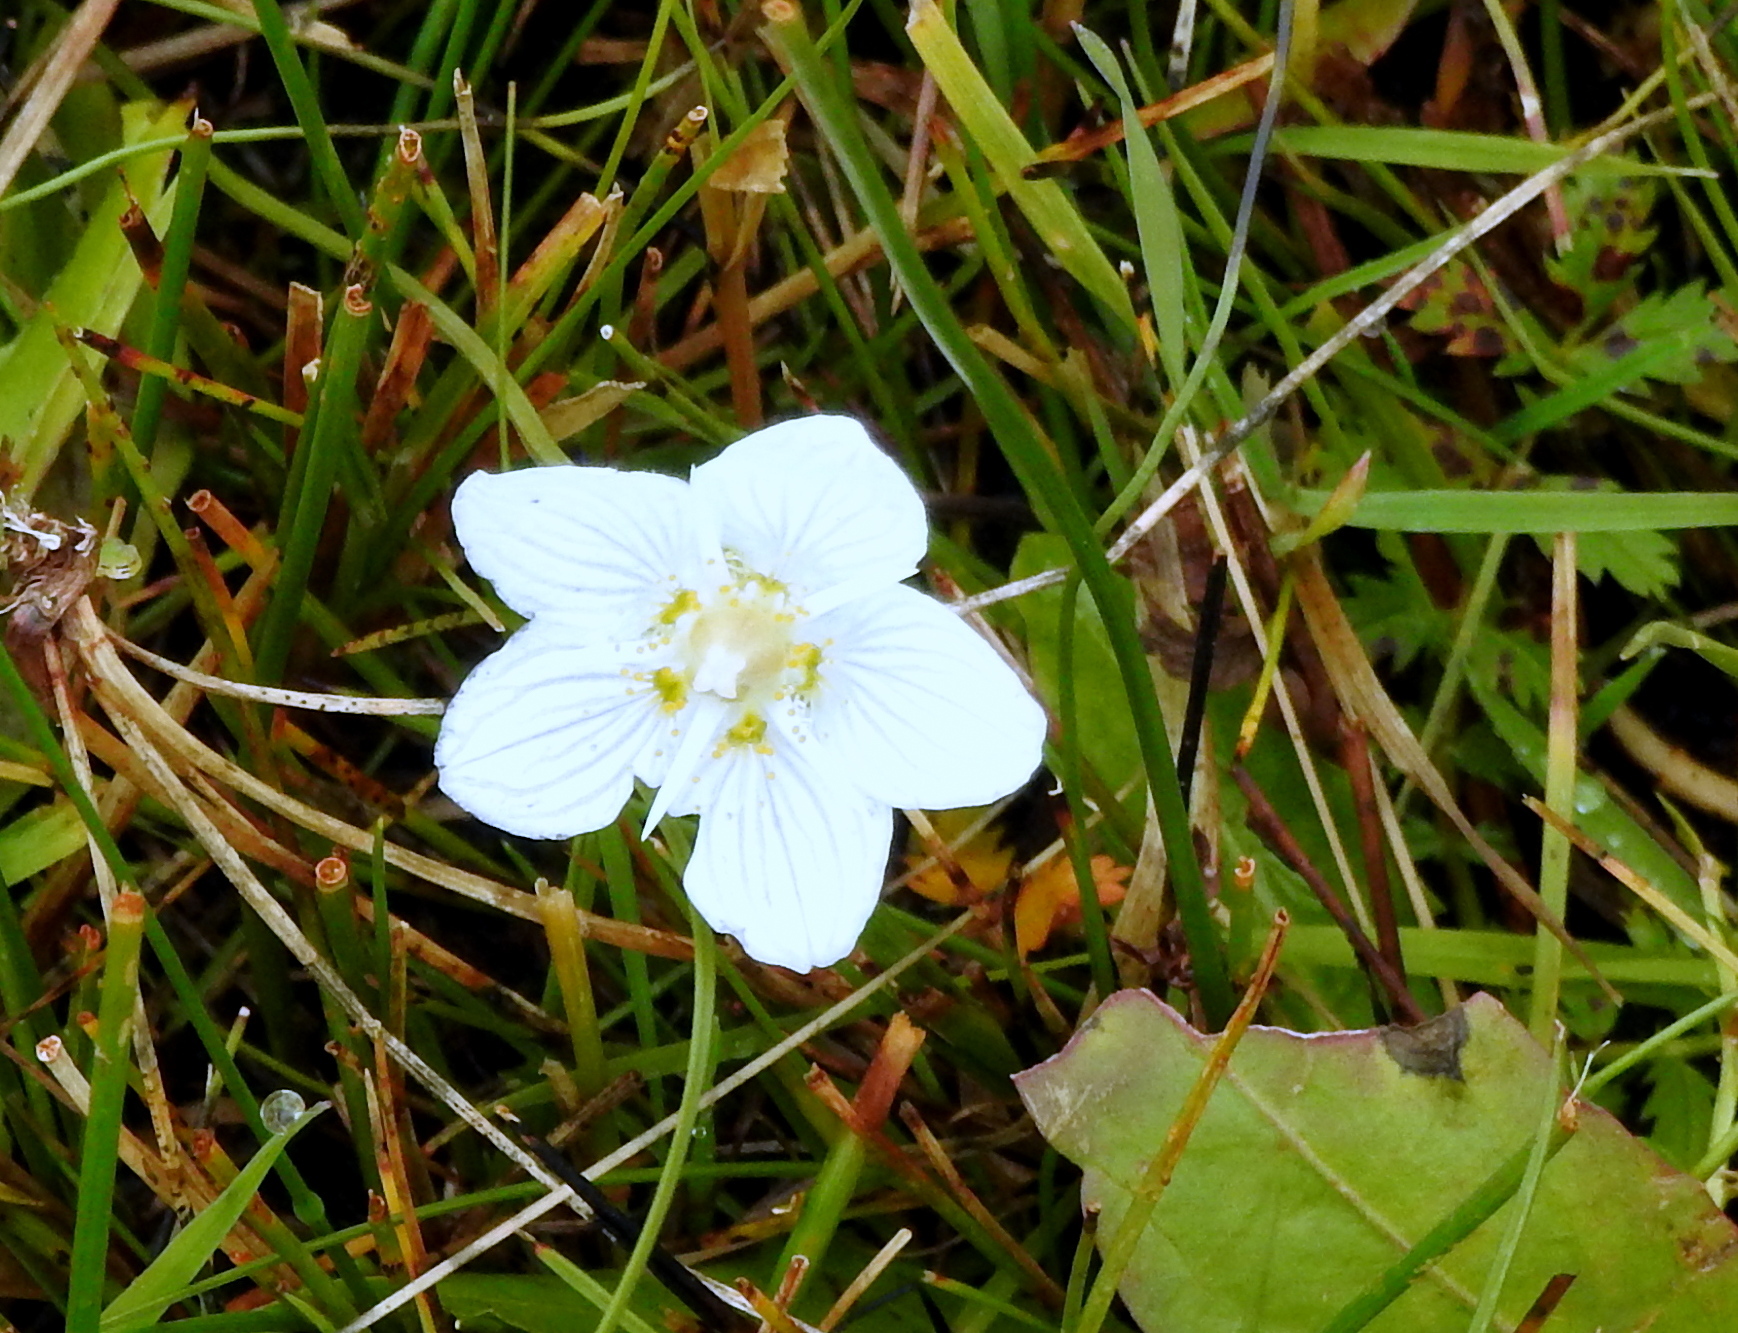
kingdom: Plantae
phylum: Tracheophyta
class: Magnoliopsida
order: Celastrales
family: Parnassiaceae
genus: Parnassia
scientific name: Parnassia palustris
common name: Grass-of-parnassus
